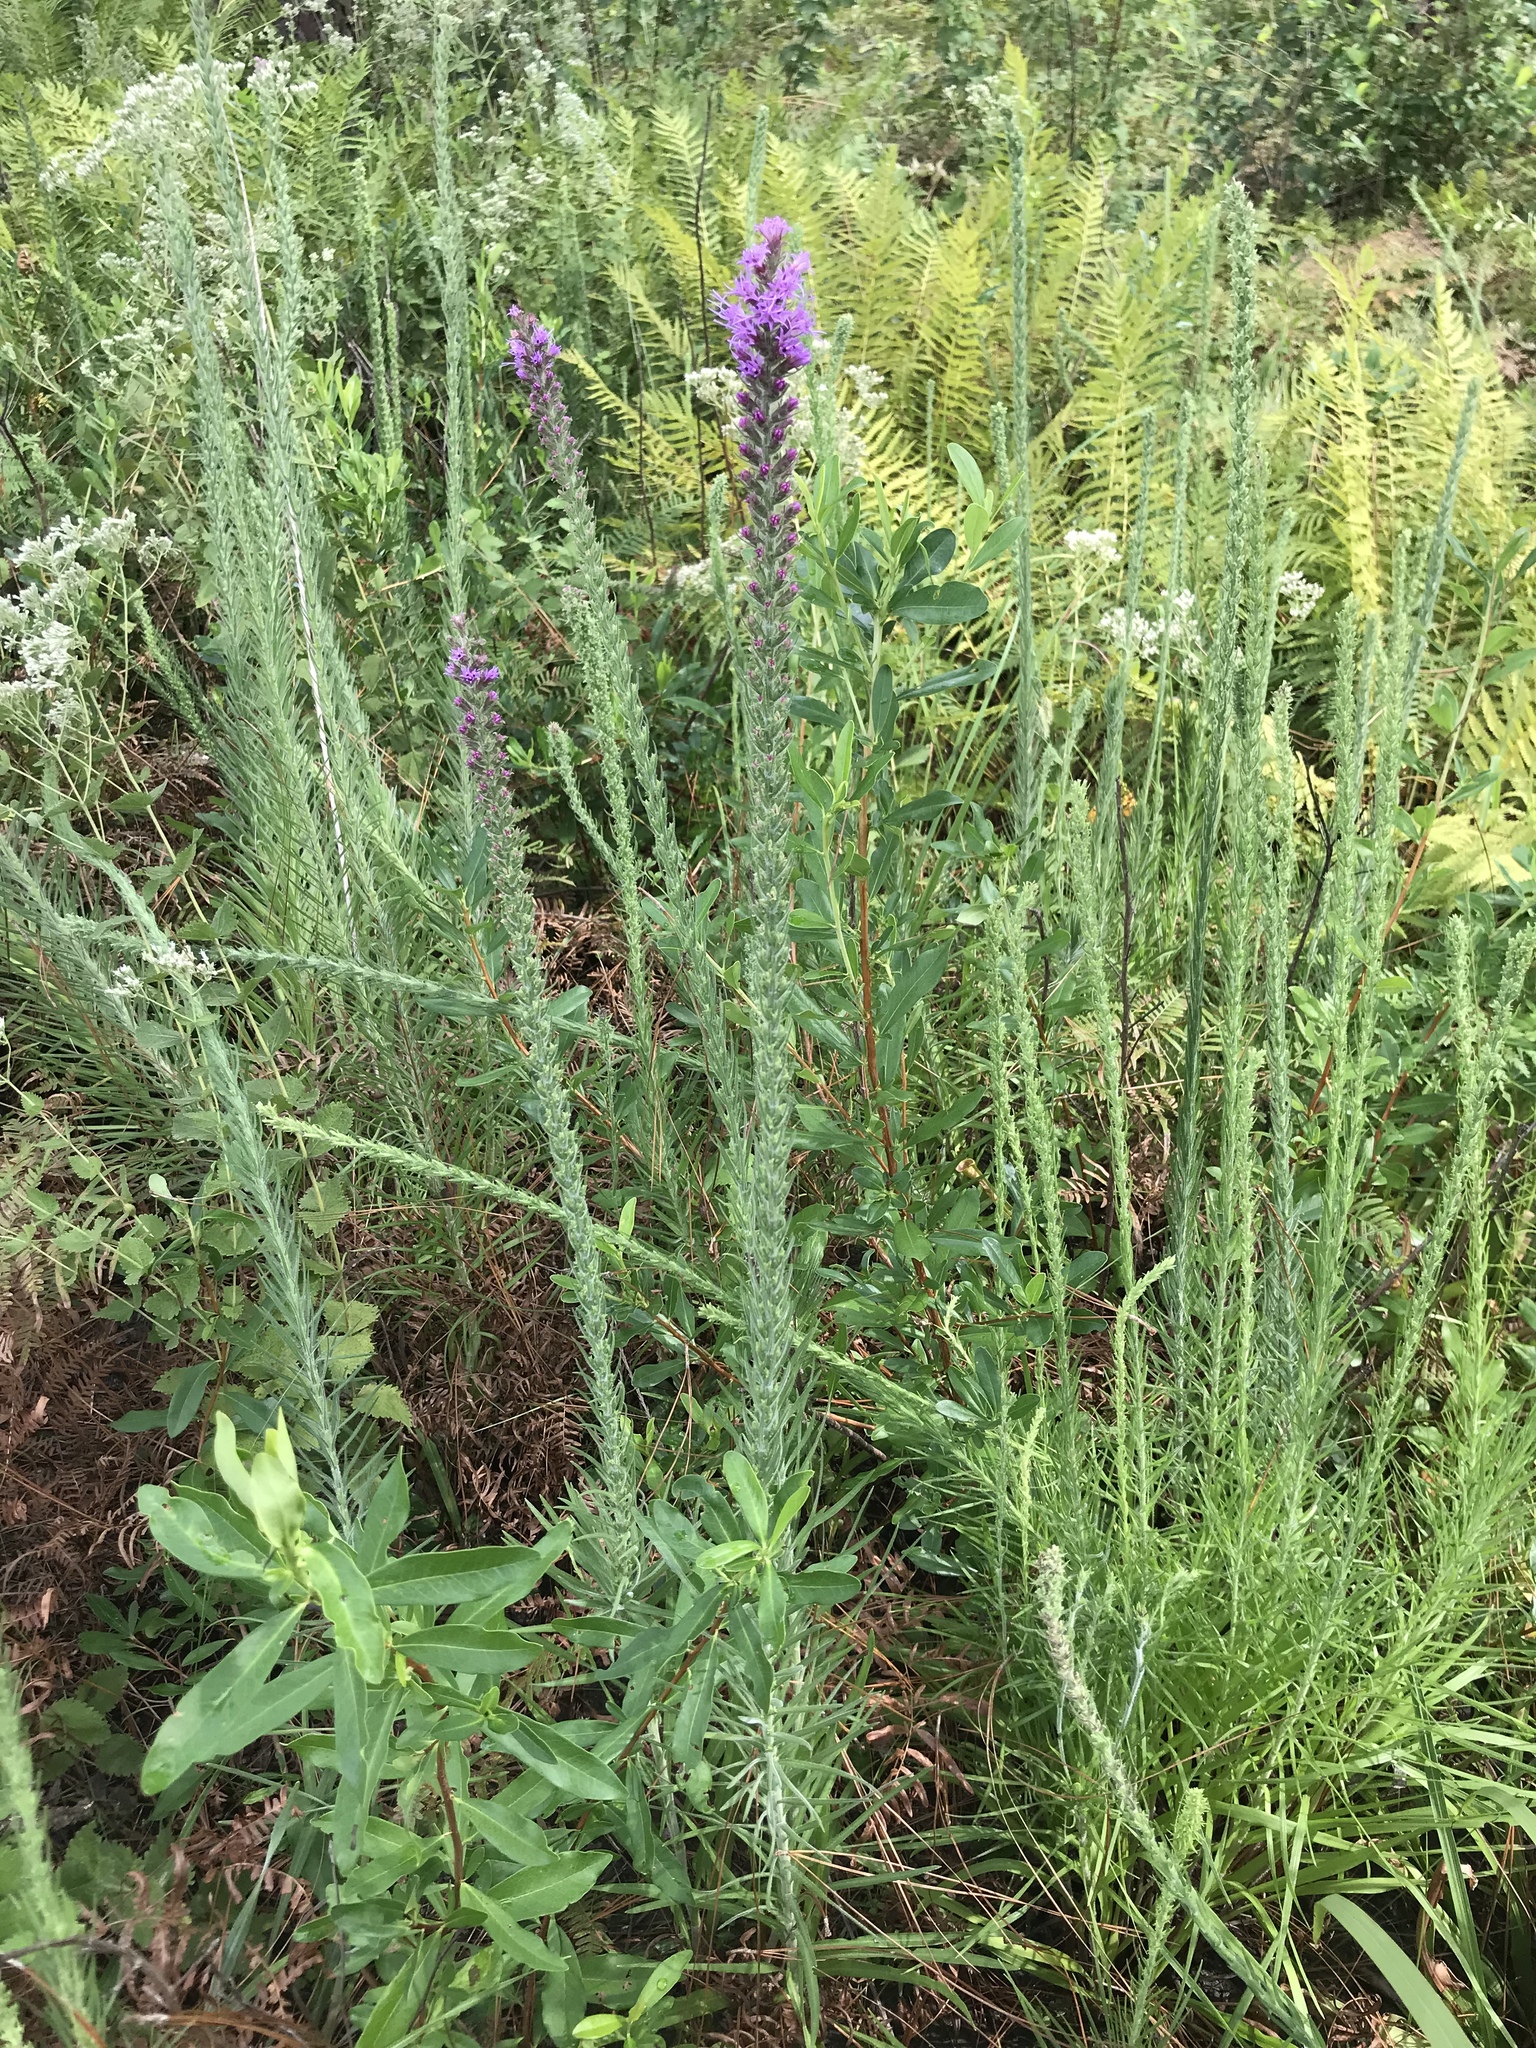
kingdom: Plantae
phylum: Tracheophyta
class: Magnoliopsida
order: Asterales
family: Asteraceae
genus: Liatris
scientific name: Liatris pycnostachya
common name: Cattail gayfeather
